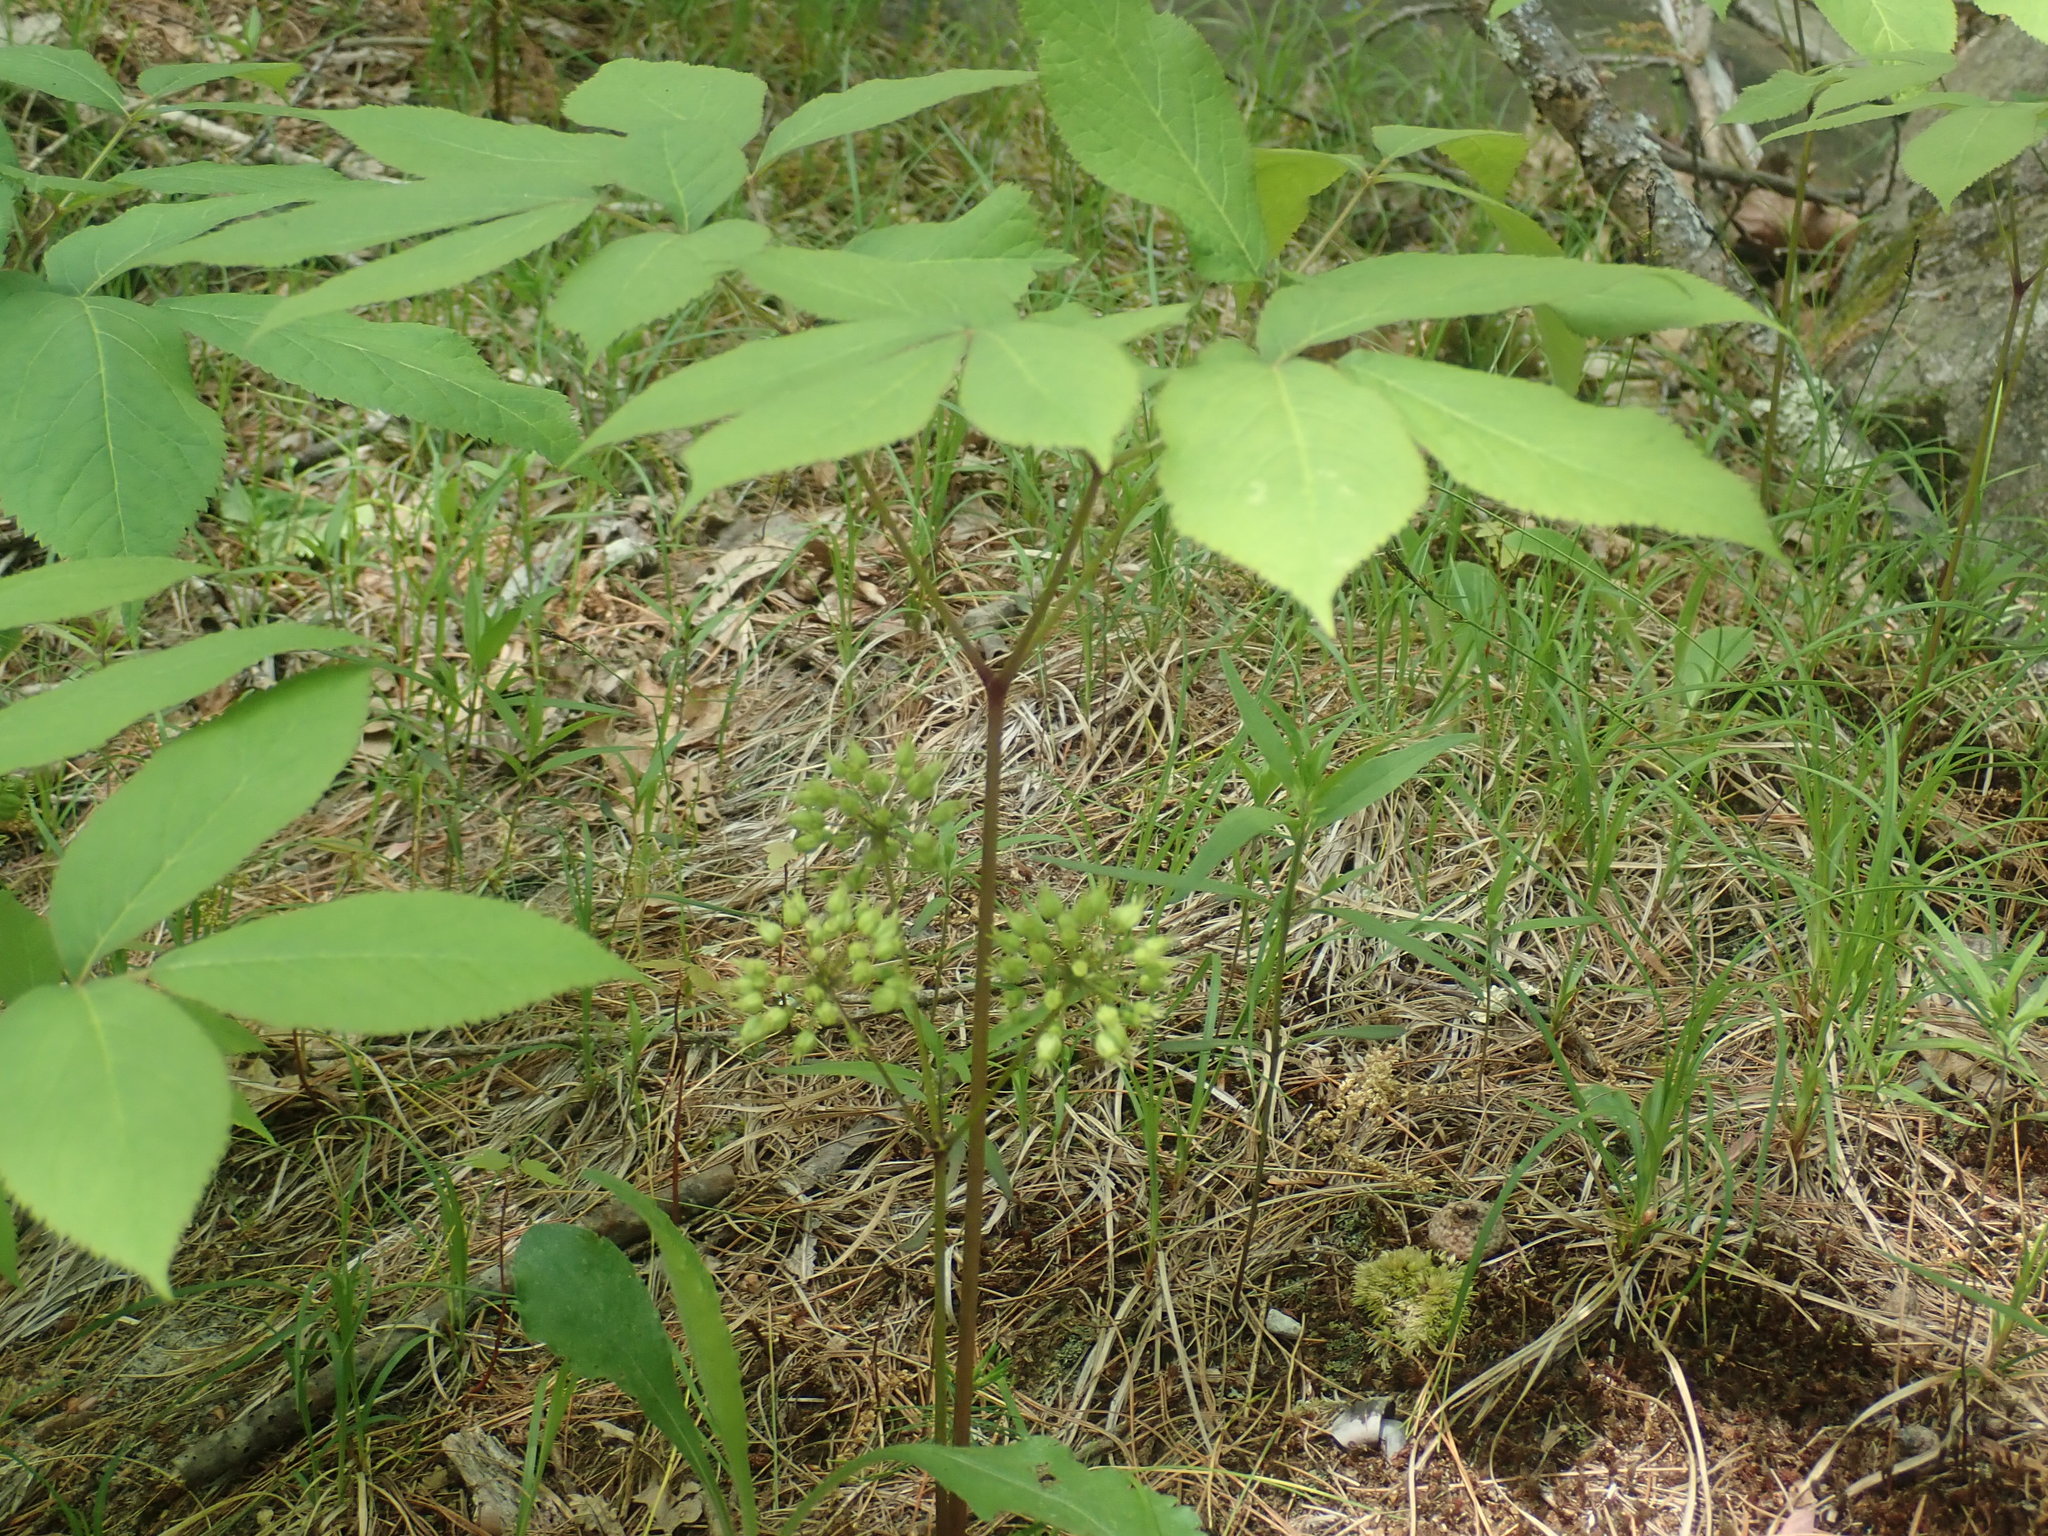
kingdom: Plantae
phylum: Tracheophyta
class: Magnoliopsida
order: Apiales
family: Araliaceae
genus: Aralia
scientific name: Aralia nudicaulis
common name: Wild sarsaparilla
